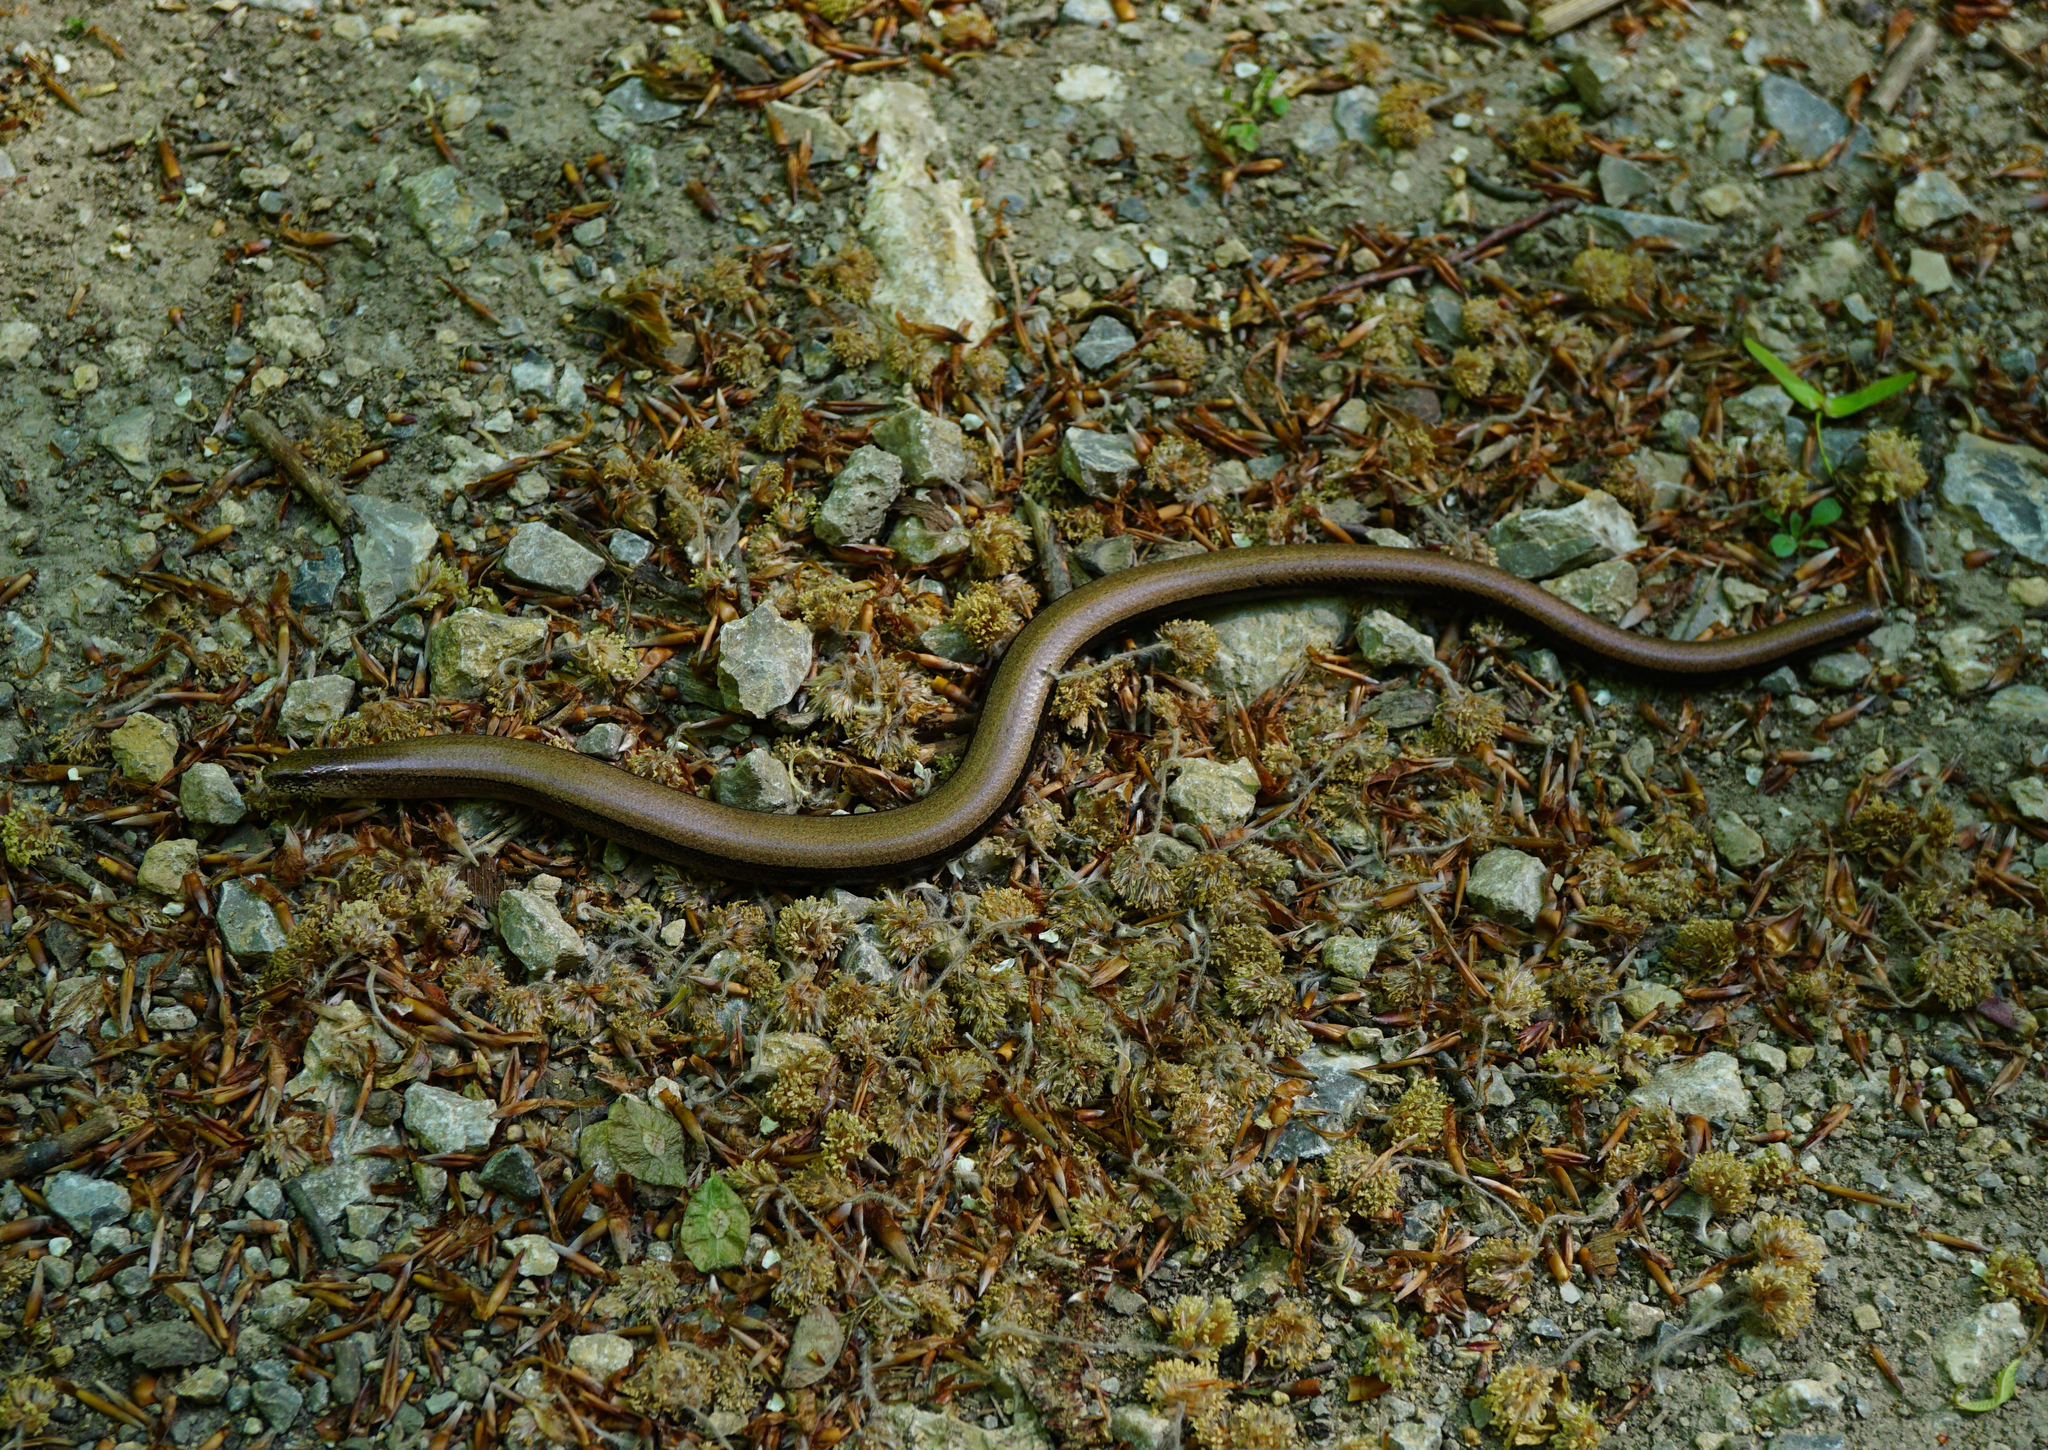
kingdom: Animalia
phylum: Chordata
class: Squamata
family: Anguidae
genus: Anguis
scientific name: Anguis fragilis
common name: Slow worm
